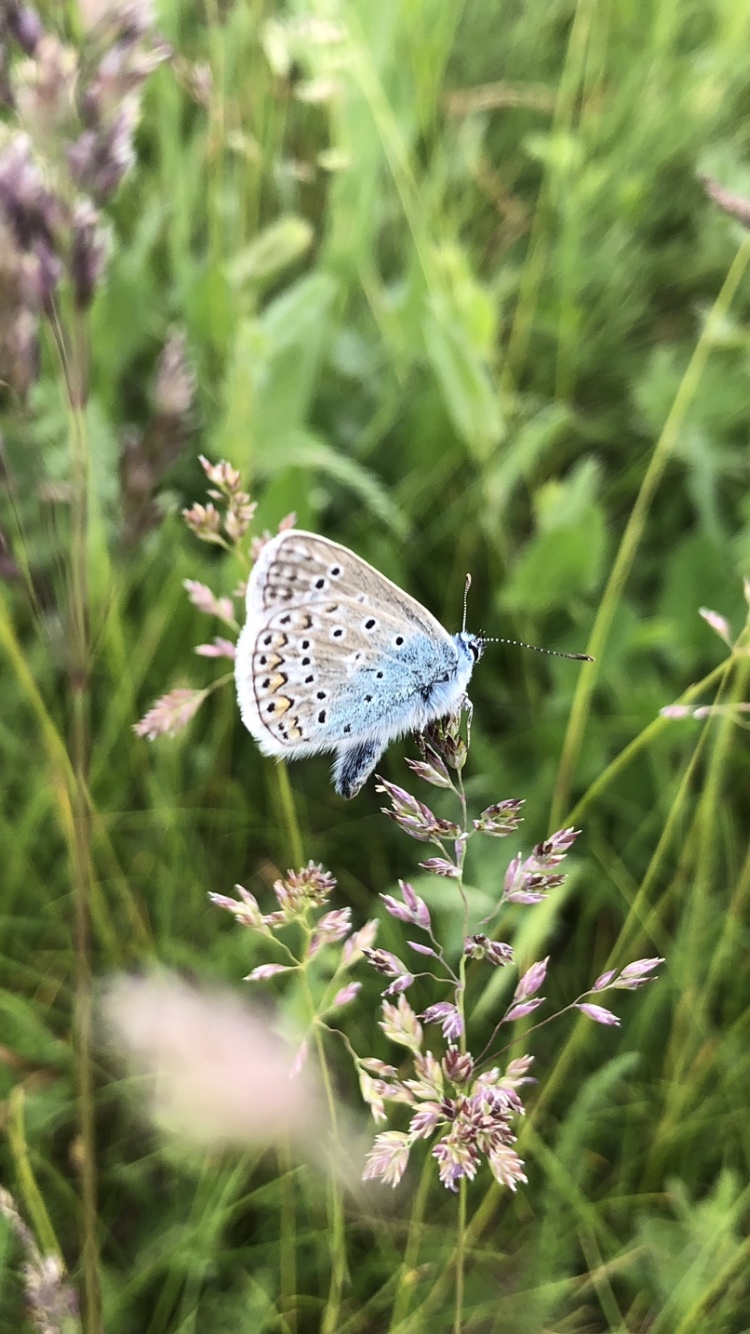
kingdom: Animalia
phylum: Arthropoda
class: Insecta
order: Lepidoptera
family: Lycaenidae
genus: Polyommatus
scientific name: Polyommatus icarus
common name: Common blue
